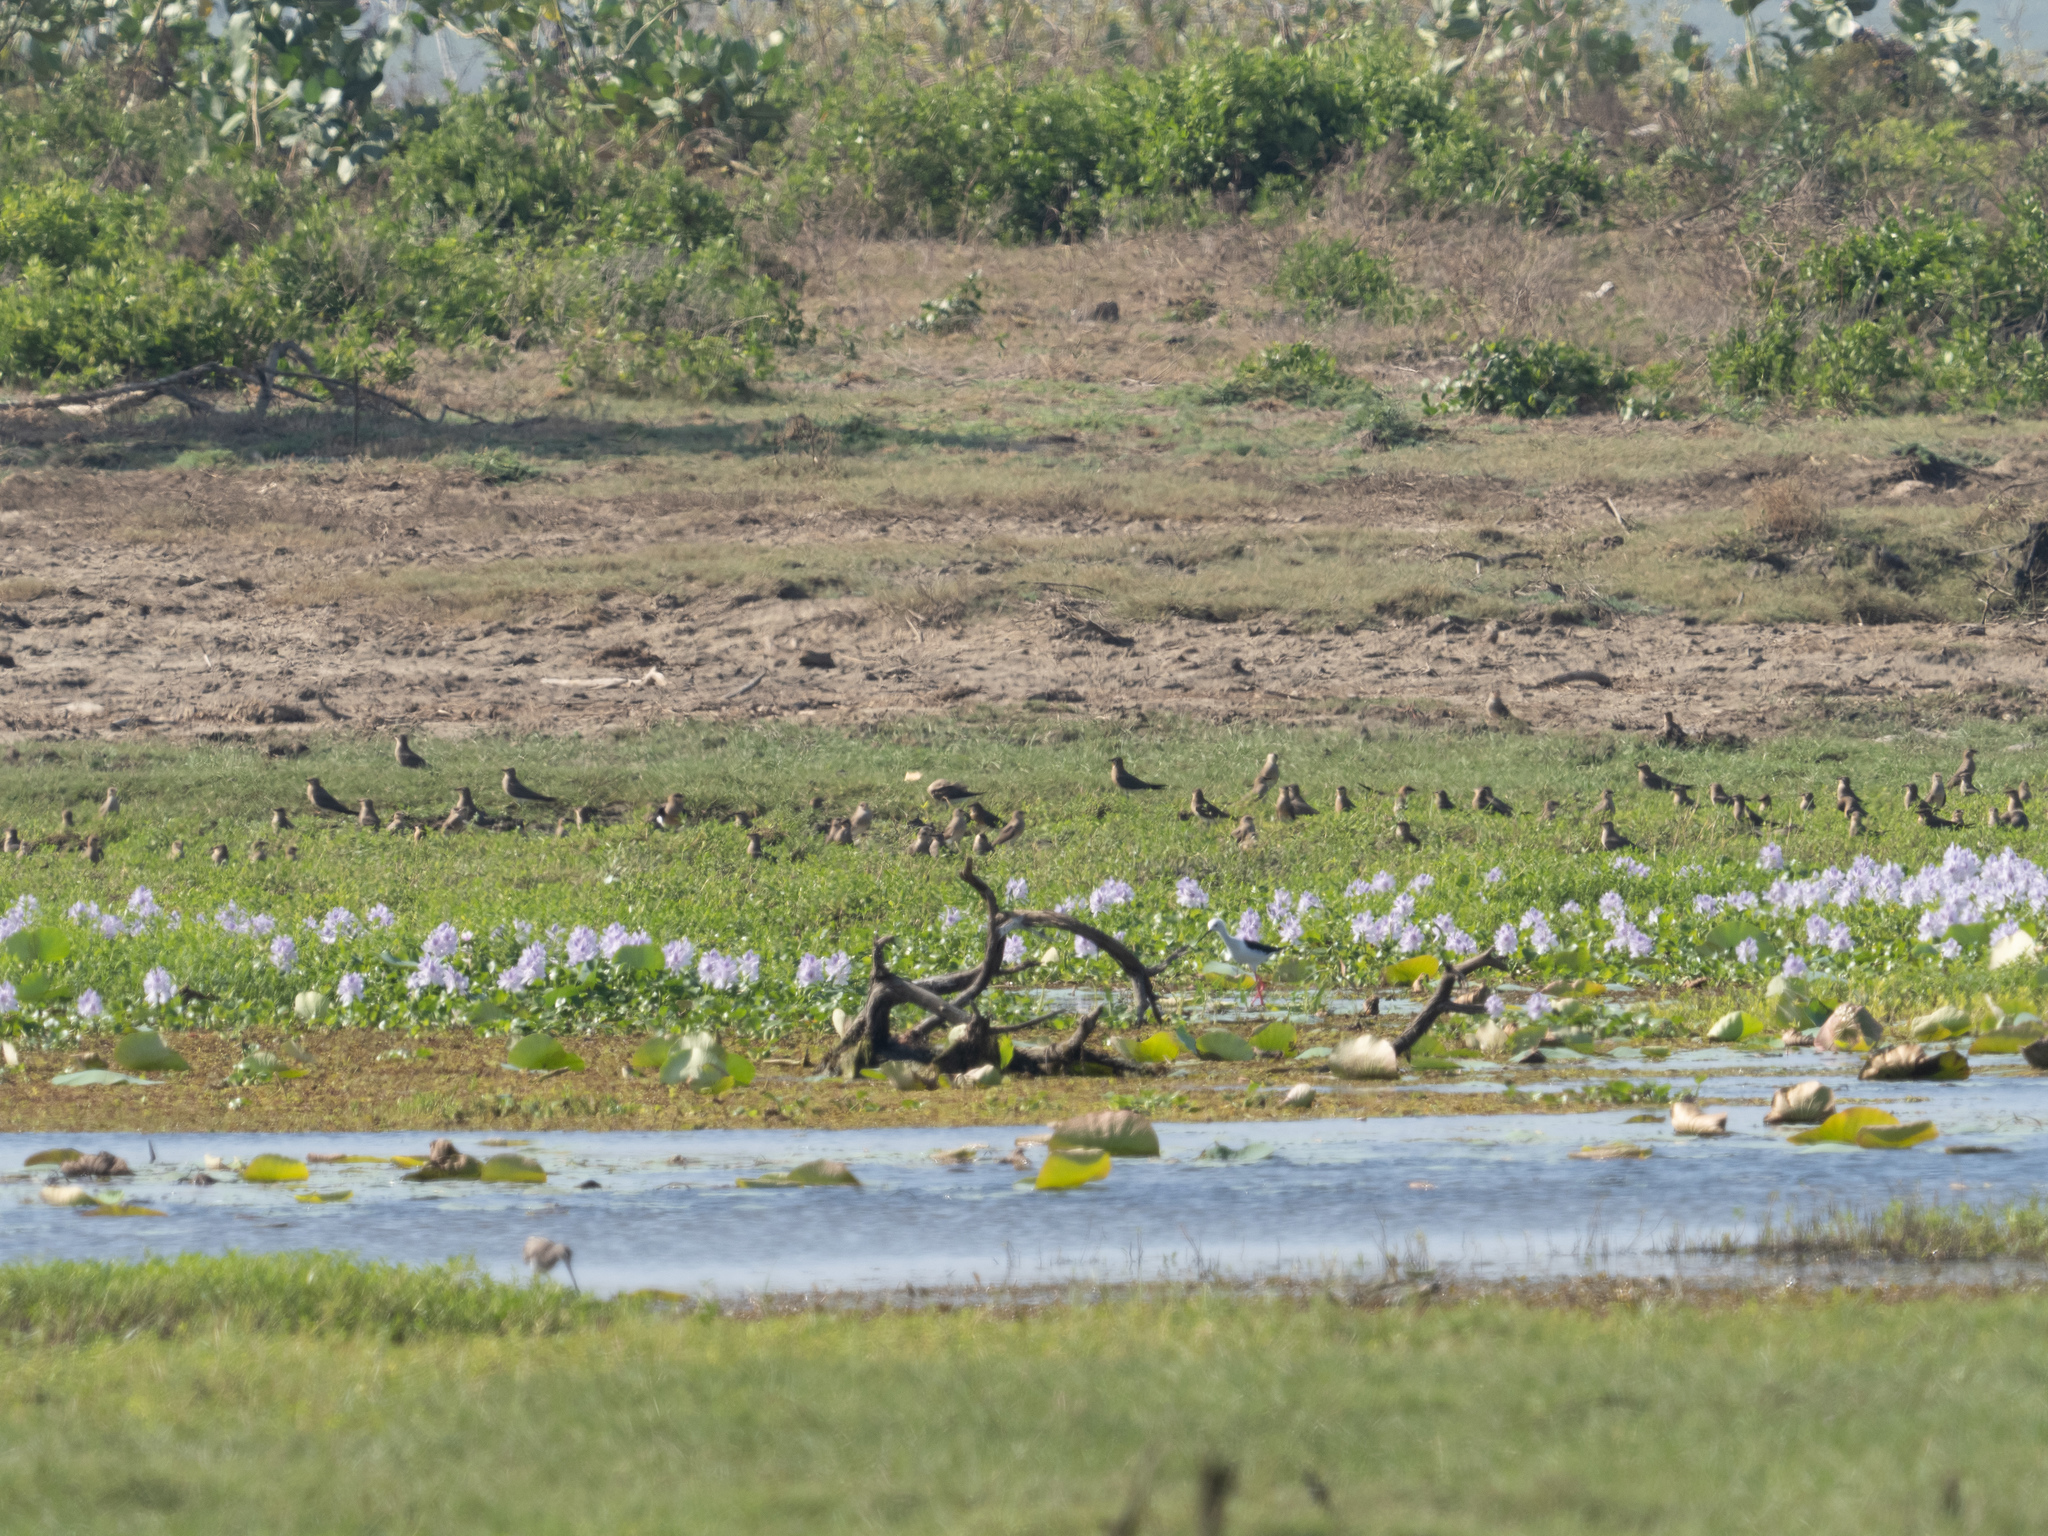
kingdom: Animalia
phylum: Chordata
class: Aves
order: Charadriiformes
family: Glareolidae
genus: Glareola
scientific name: Glareola maldivarum
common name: Oriental pratincole
